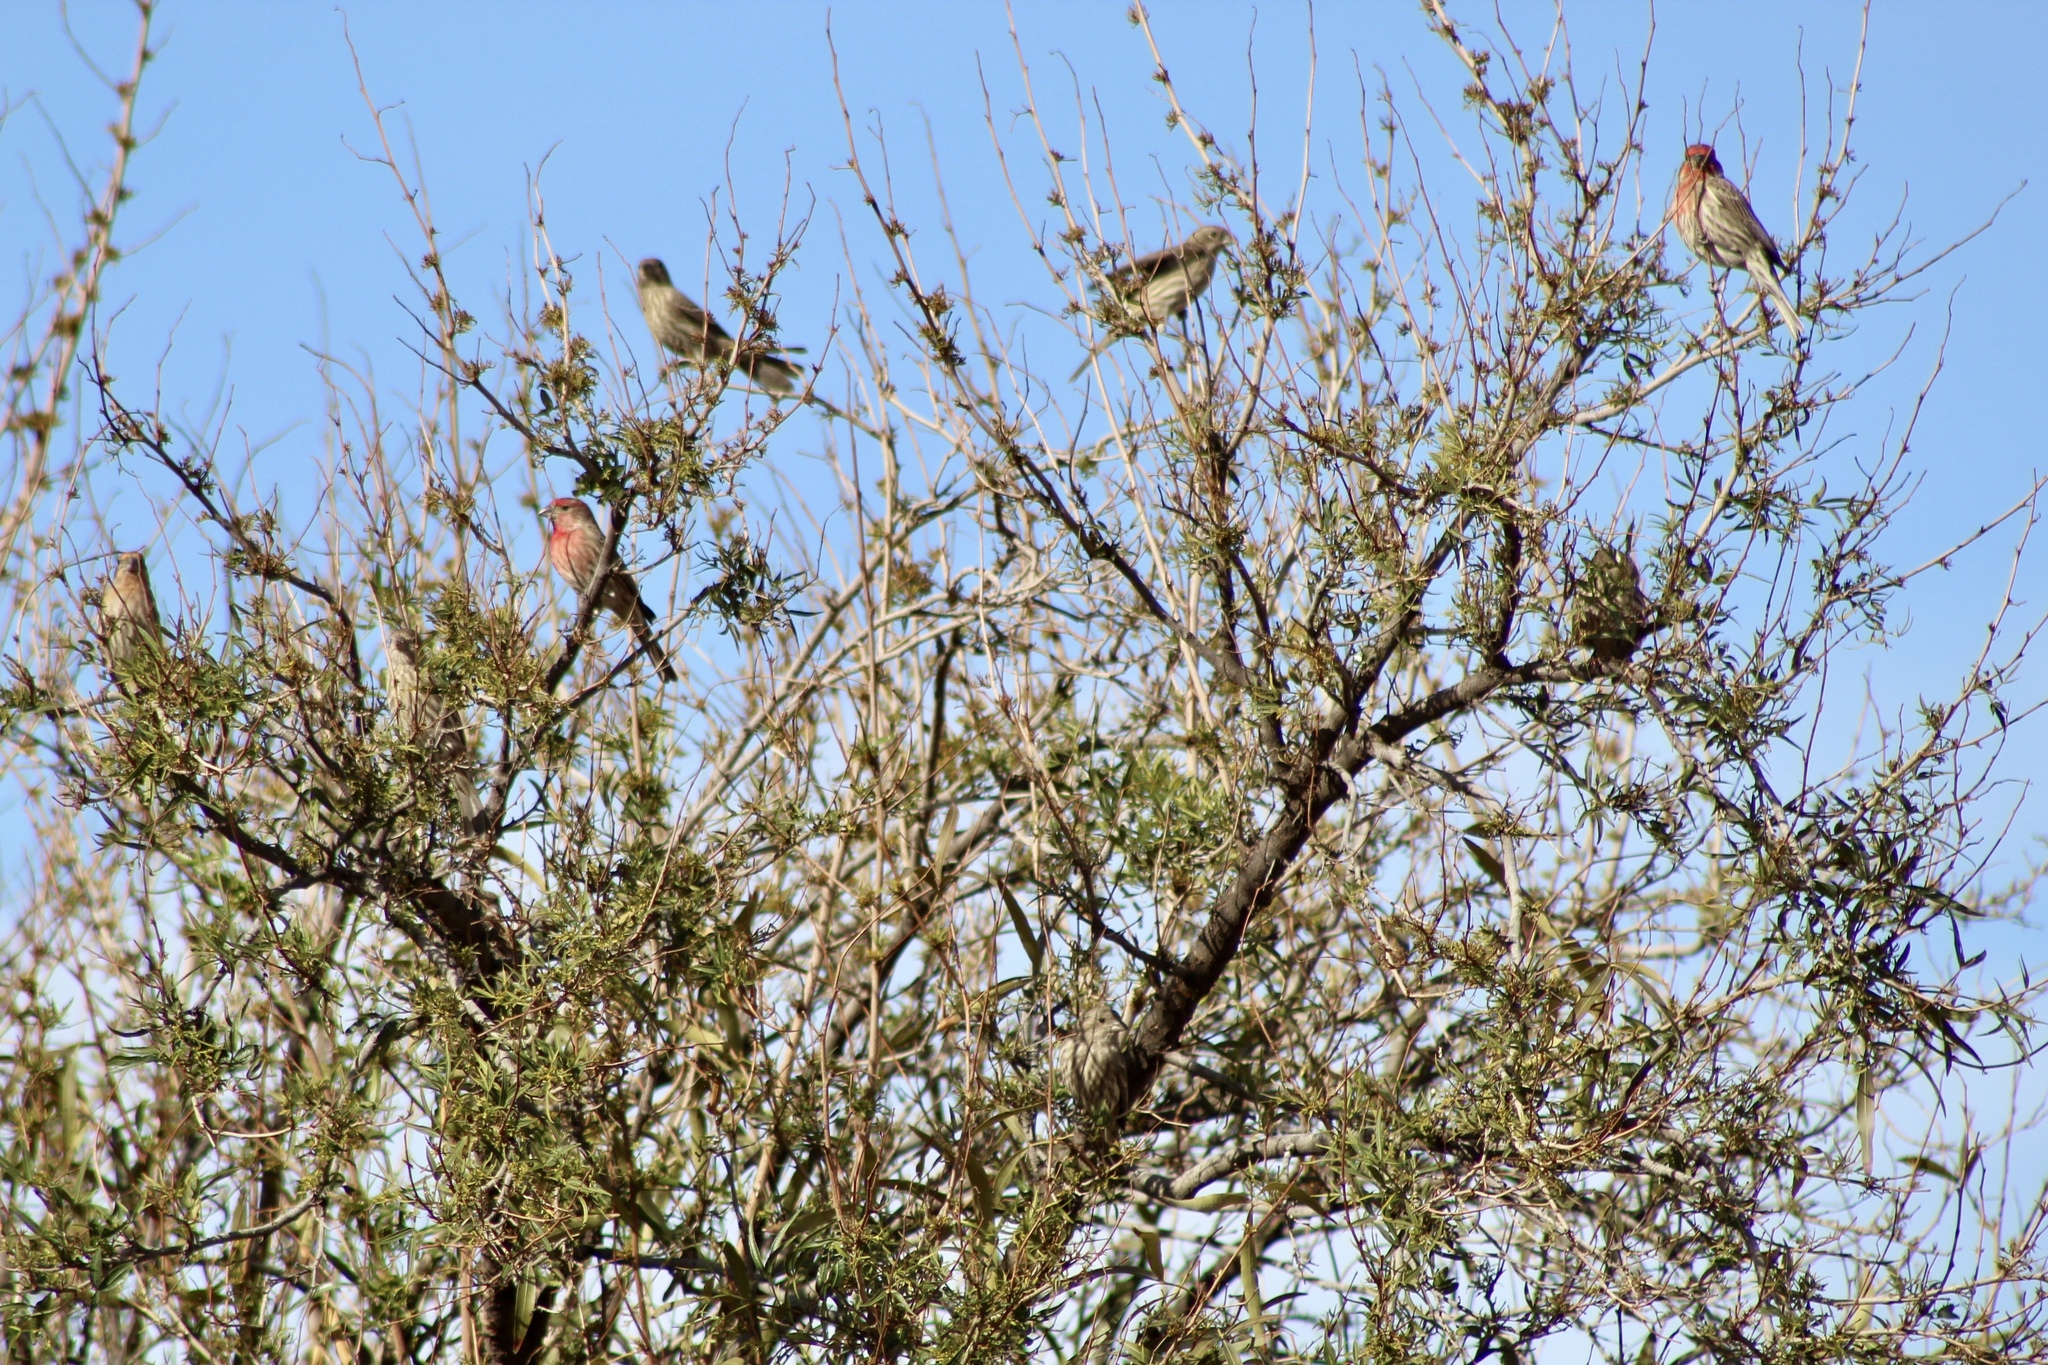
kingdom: Animalia
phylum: Chordata
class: Aves
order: Passeriformes
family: Fringillidae
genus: Haemorhous
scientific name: Haemorhous mexicanus
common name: House finch
